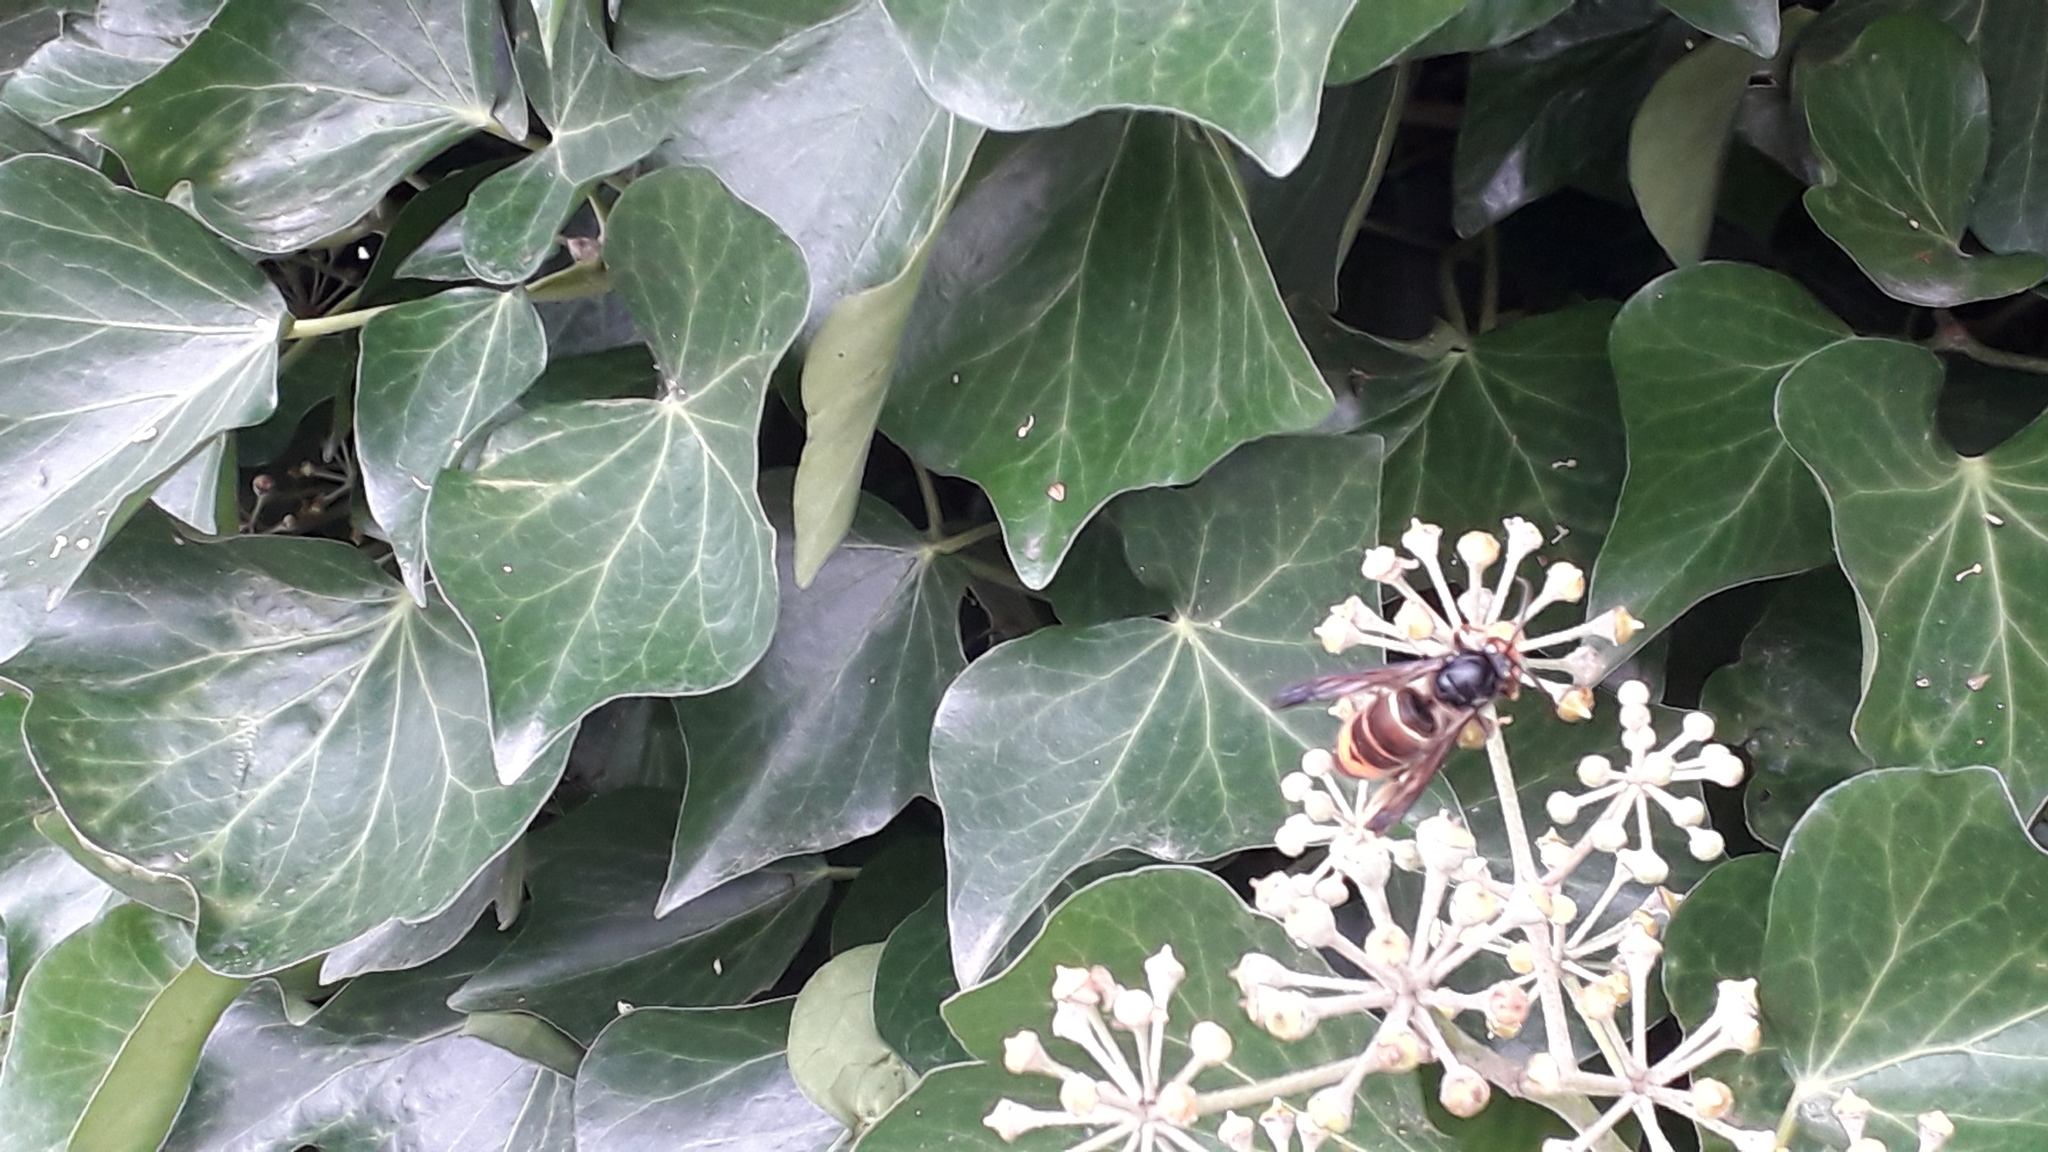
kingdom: Animalia
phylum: Arthropoda
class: Insecta
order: Hymenoptera
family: Vespidae
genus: Vespa
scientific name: Vespa velutina
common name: Asian hornet
